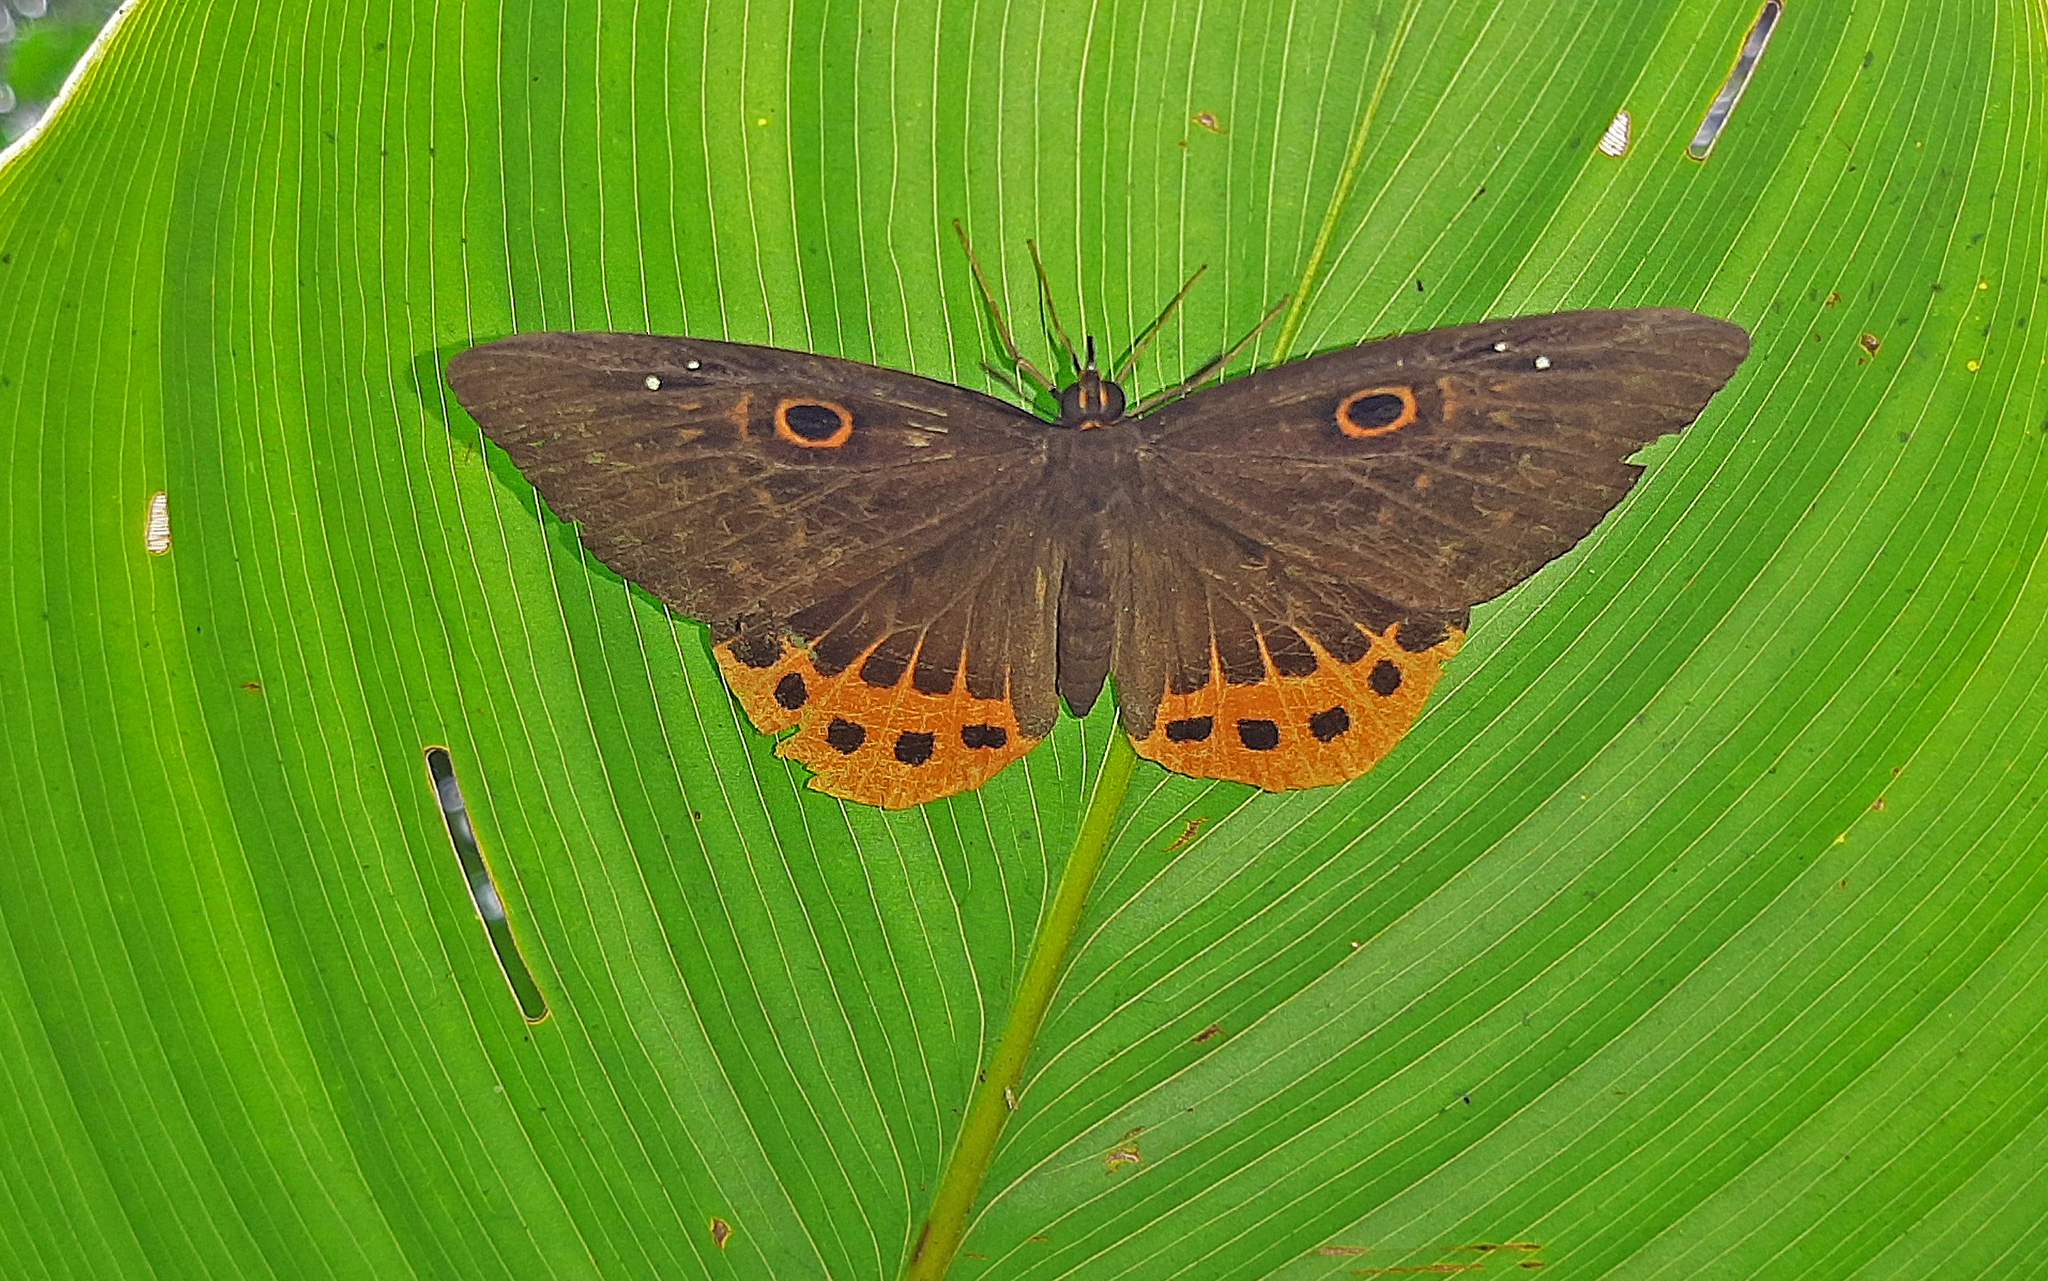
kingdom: Animalia
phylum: Cnidaria
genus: Eurybia
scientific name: Eurybia donna
